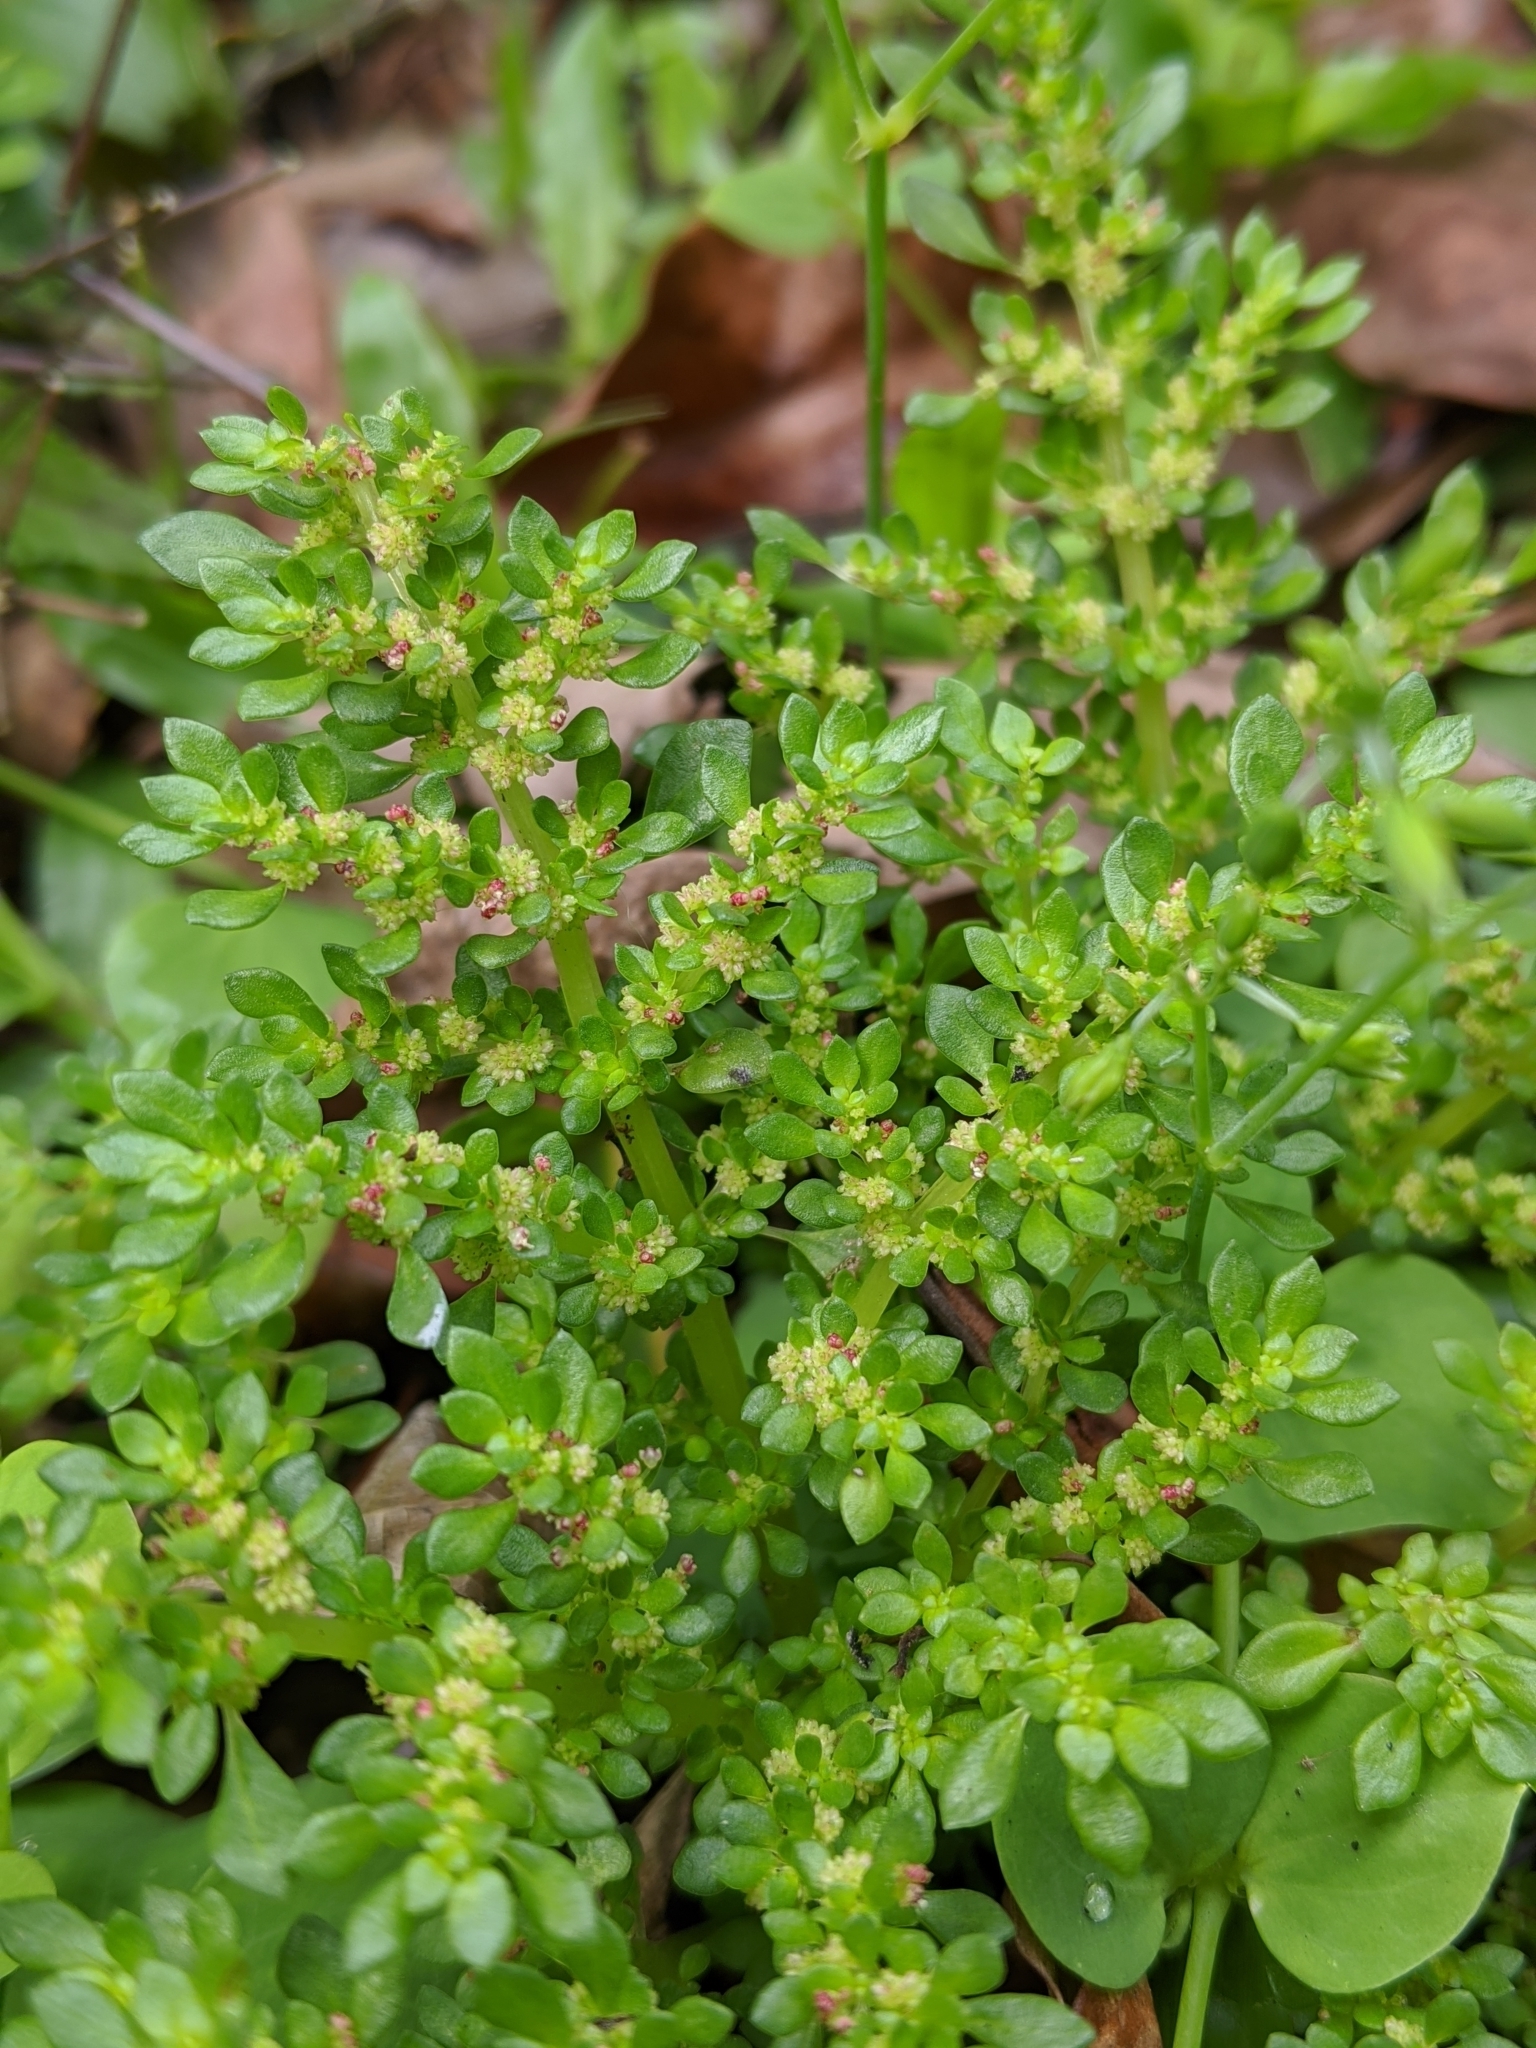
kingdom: Plantae
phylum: Tracheophyta
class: Magnoliopsida
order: Rosales
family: Urticaceae
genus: Pilea
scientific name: Pilea microphylla
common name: Artillery-plant
